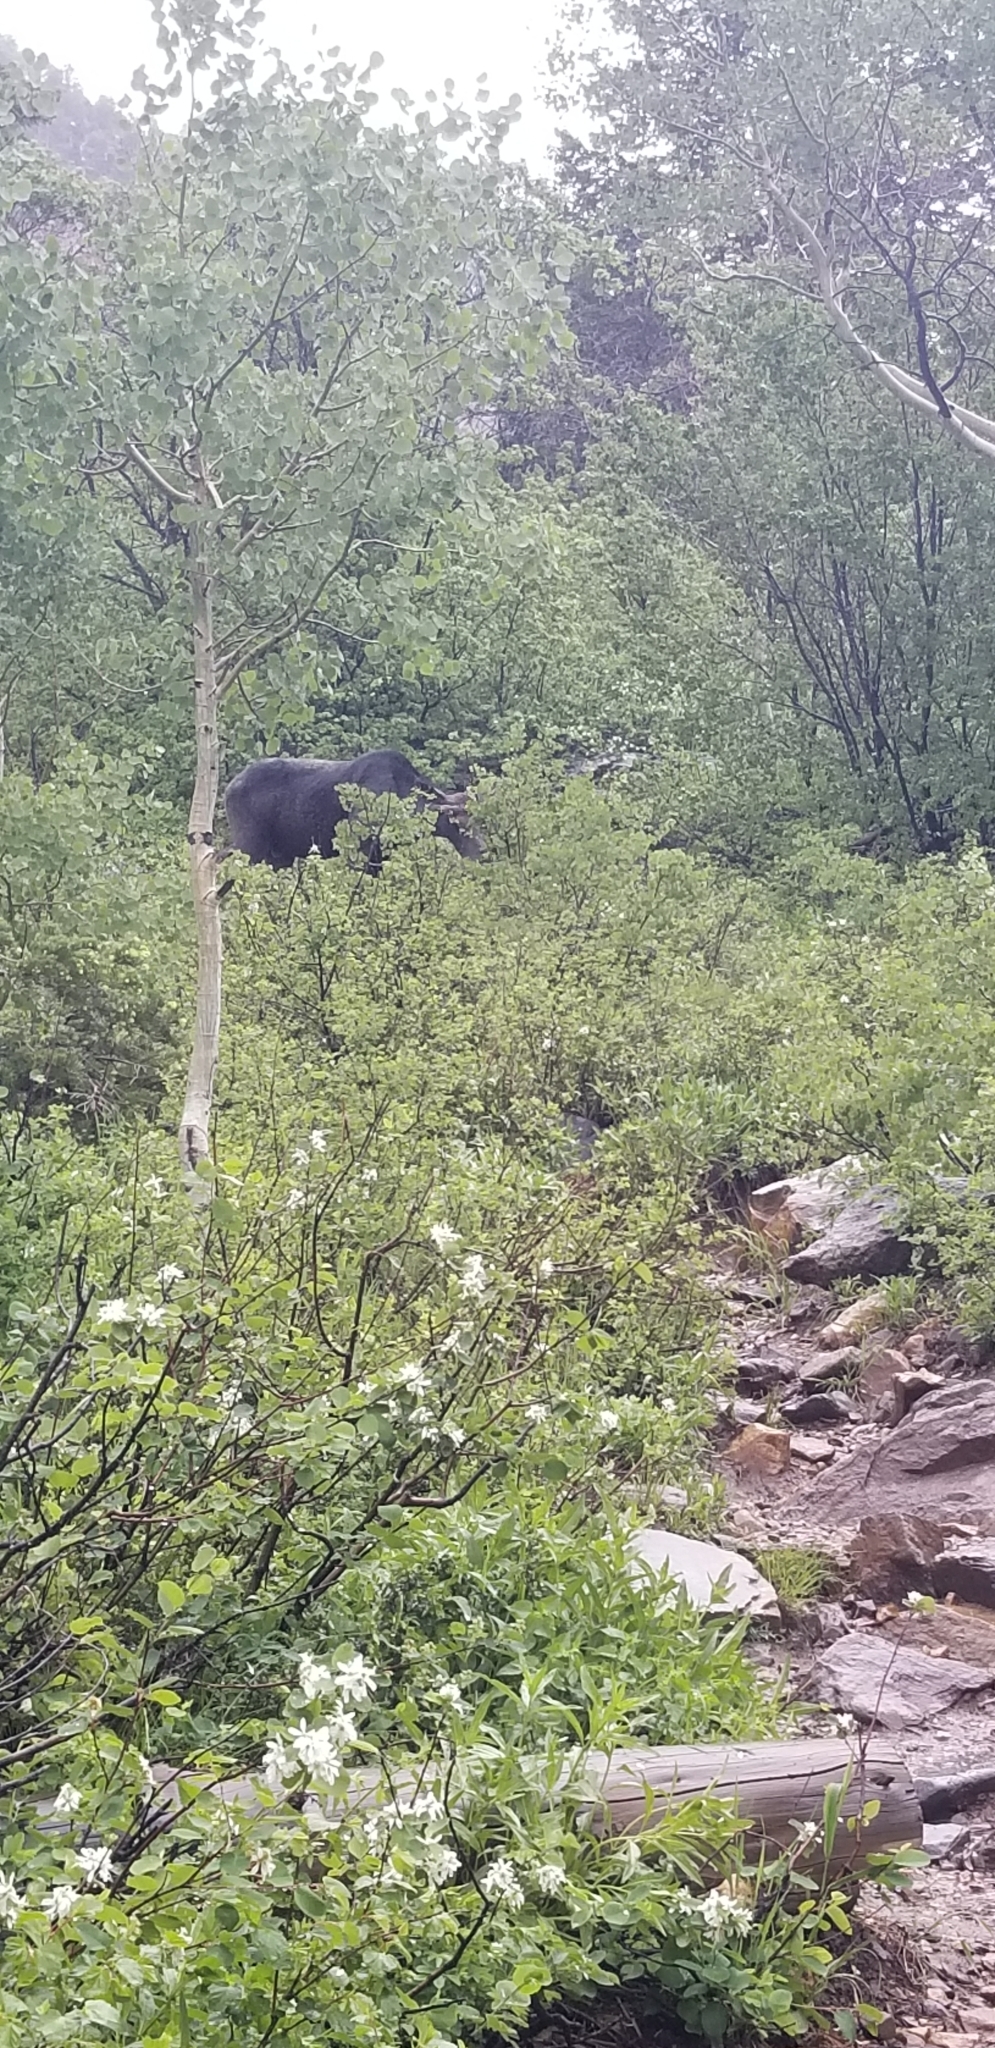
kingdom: Animalia
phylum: Chordata
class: Mammalia
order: Artiodactyla
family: Cervidae
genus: Alces
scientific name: Alces americanus
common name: Moose
